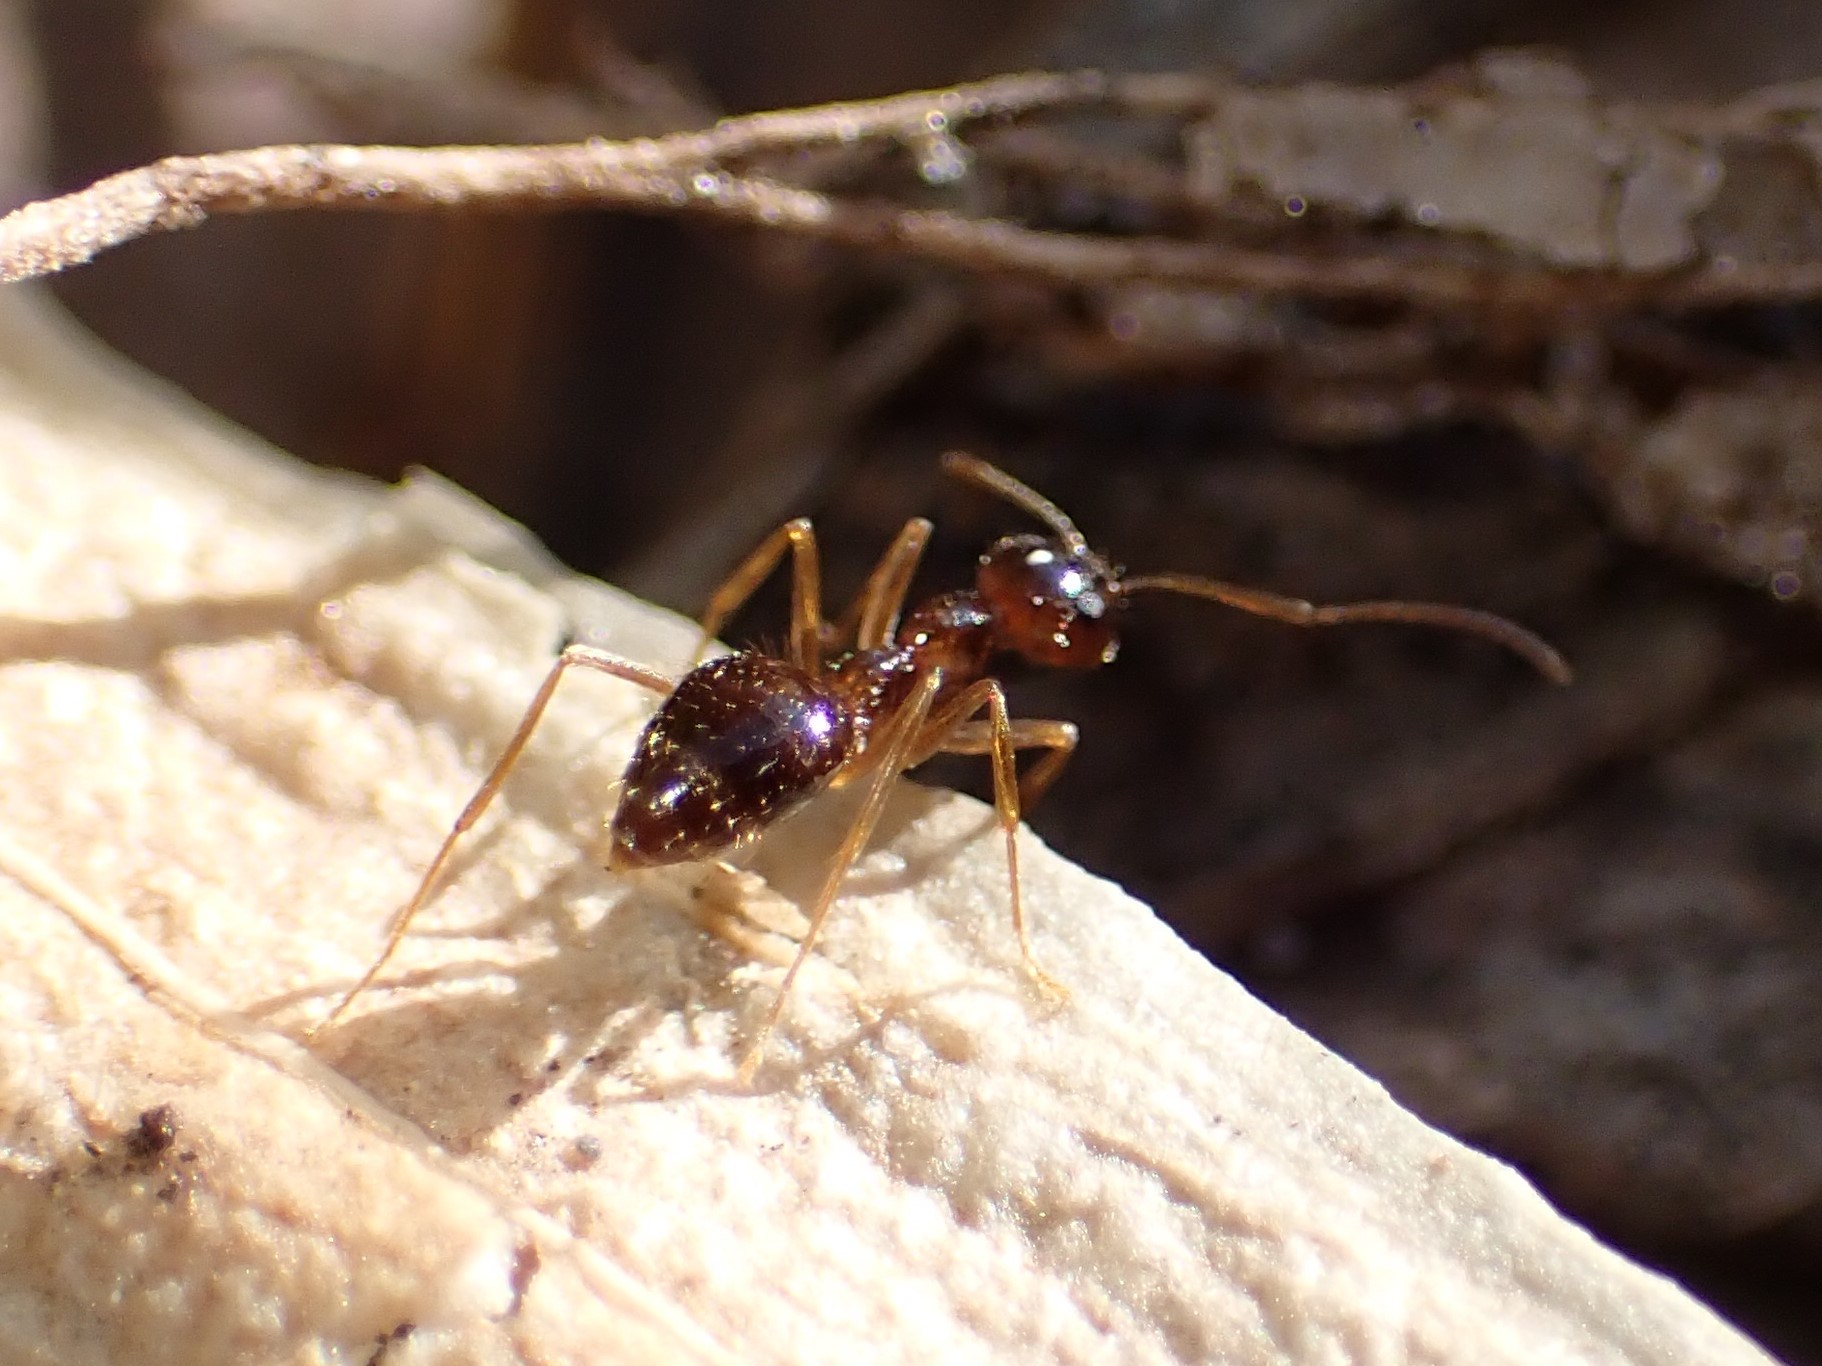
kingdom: Animalia
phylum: Arthropoda
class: Insecta
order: Hymenoptera
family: Formicidae
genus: Prenolepis
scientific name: Prenolepis imparis
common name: Small honey ant
